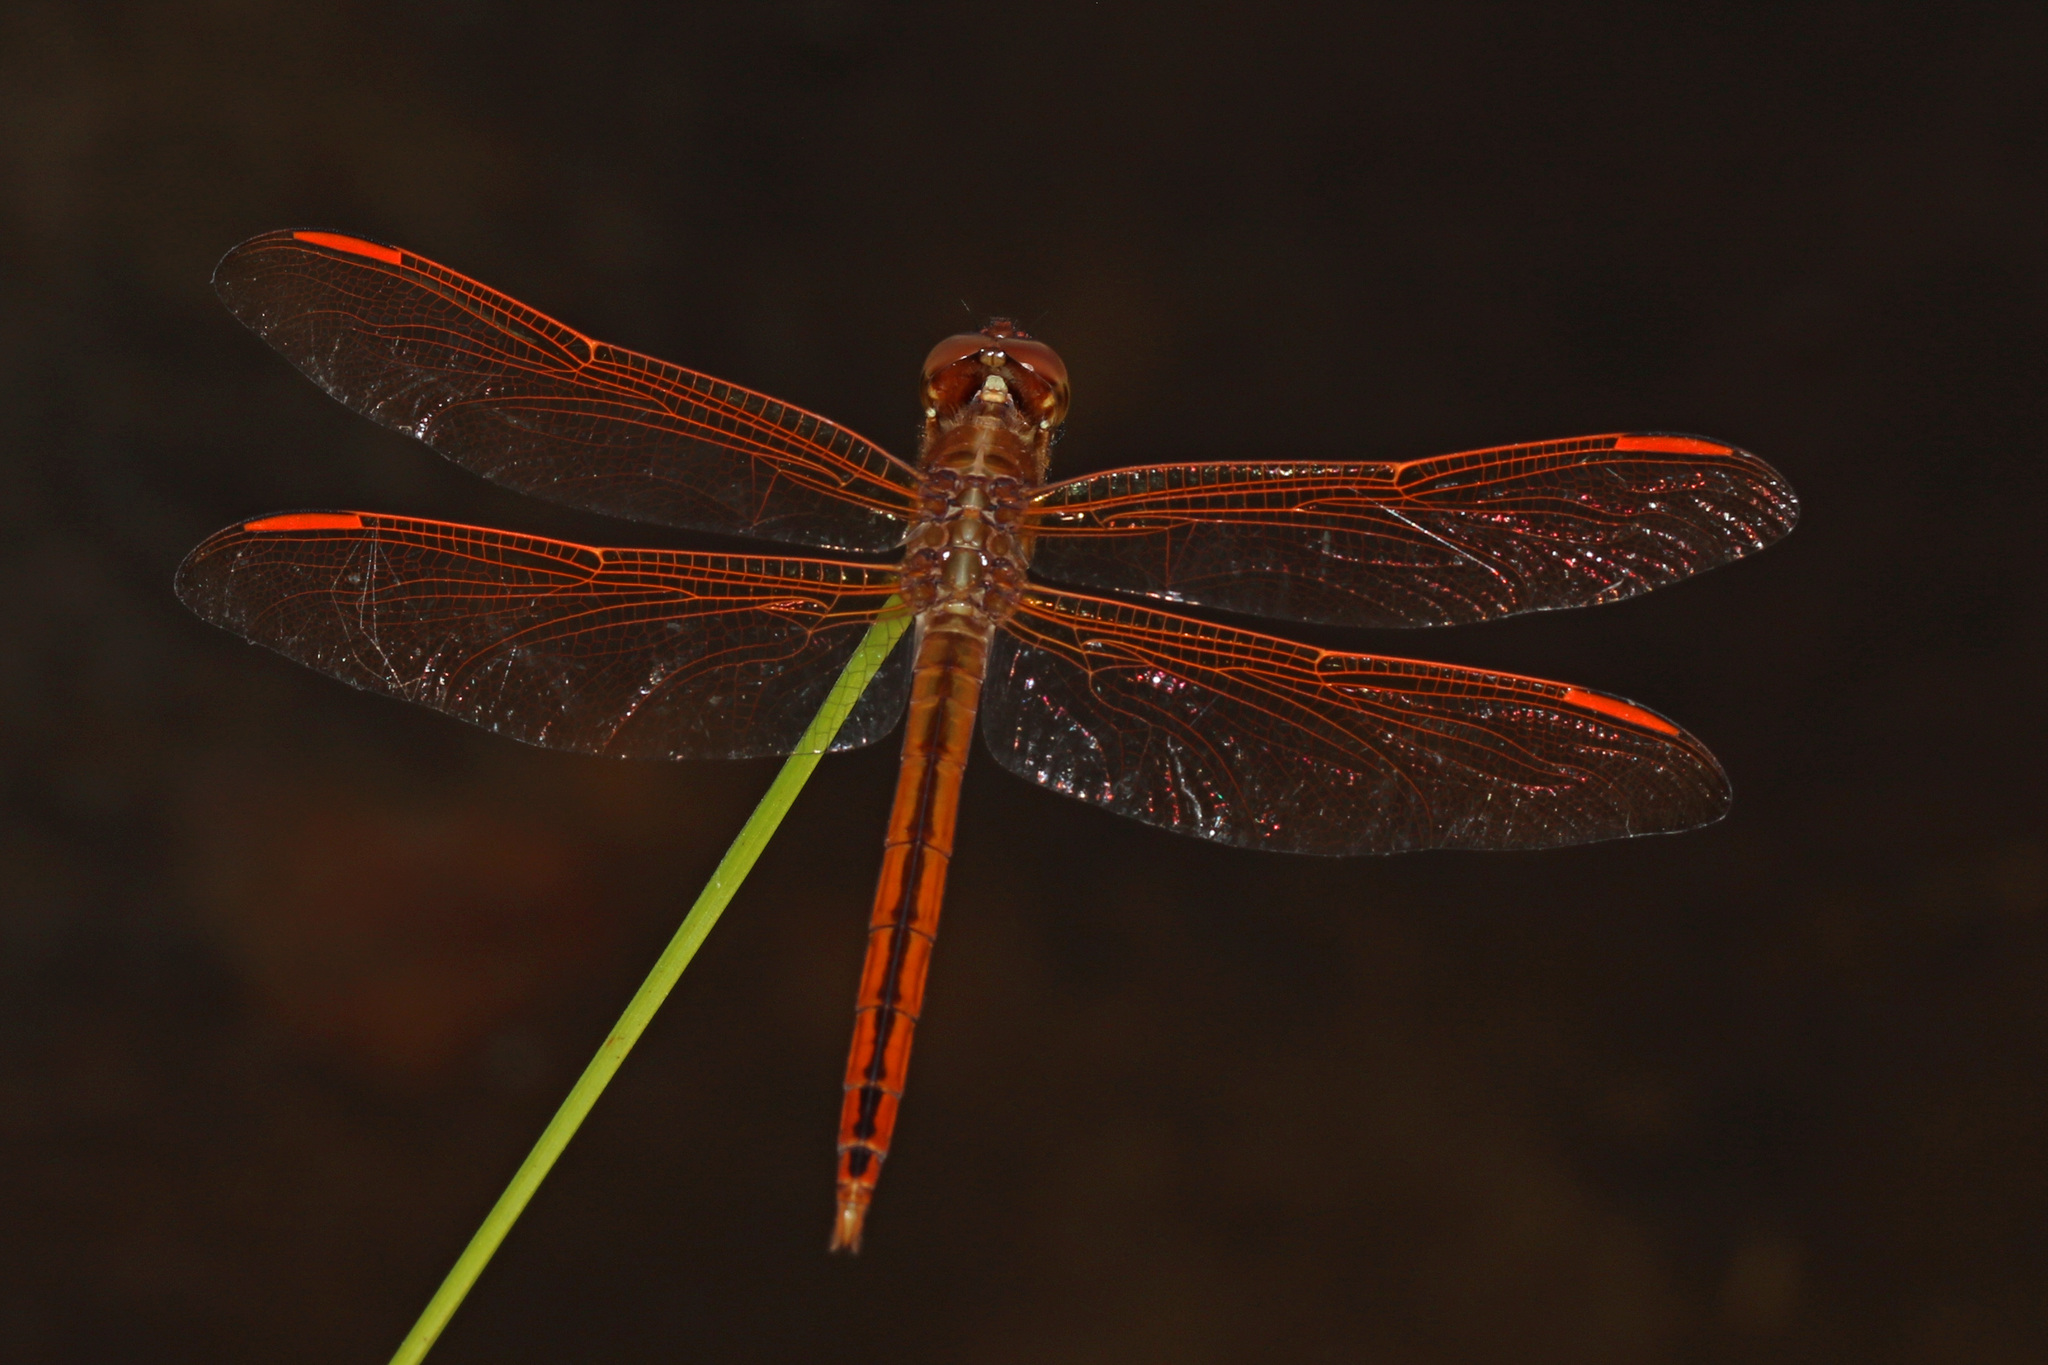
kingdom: Animalia
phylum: Arthropoda
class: Insecta
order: Odonata
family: Libellulidae
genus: Libellula
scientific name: Libellula auripennis
